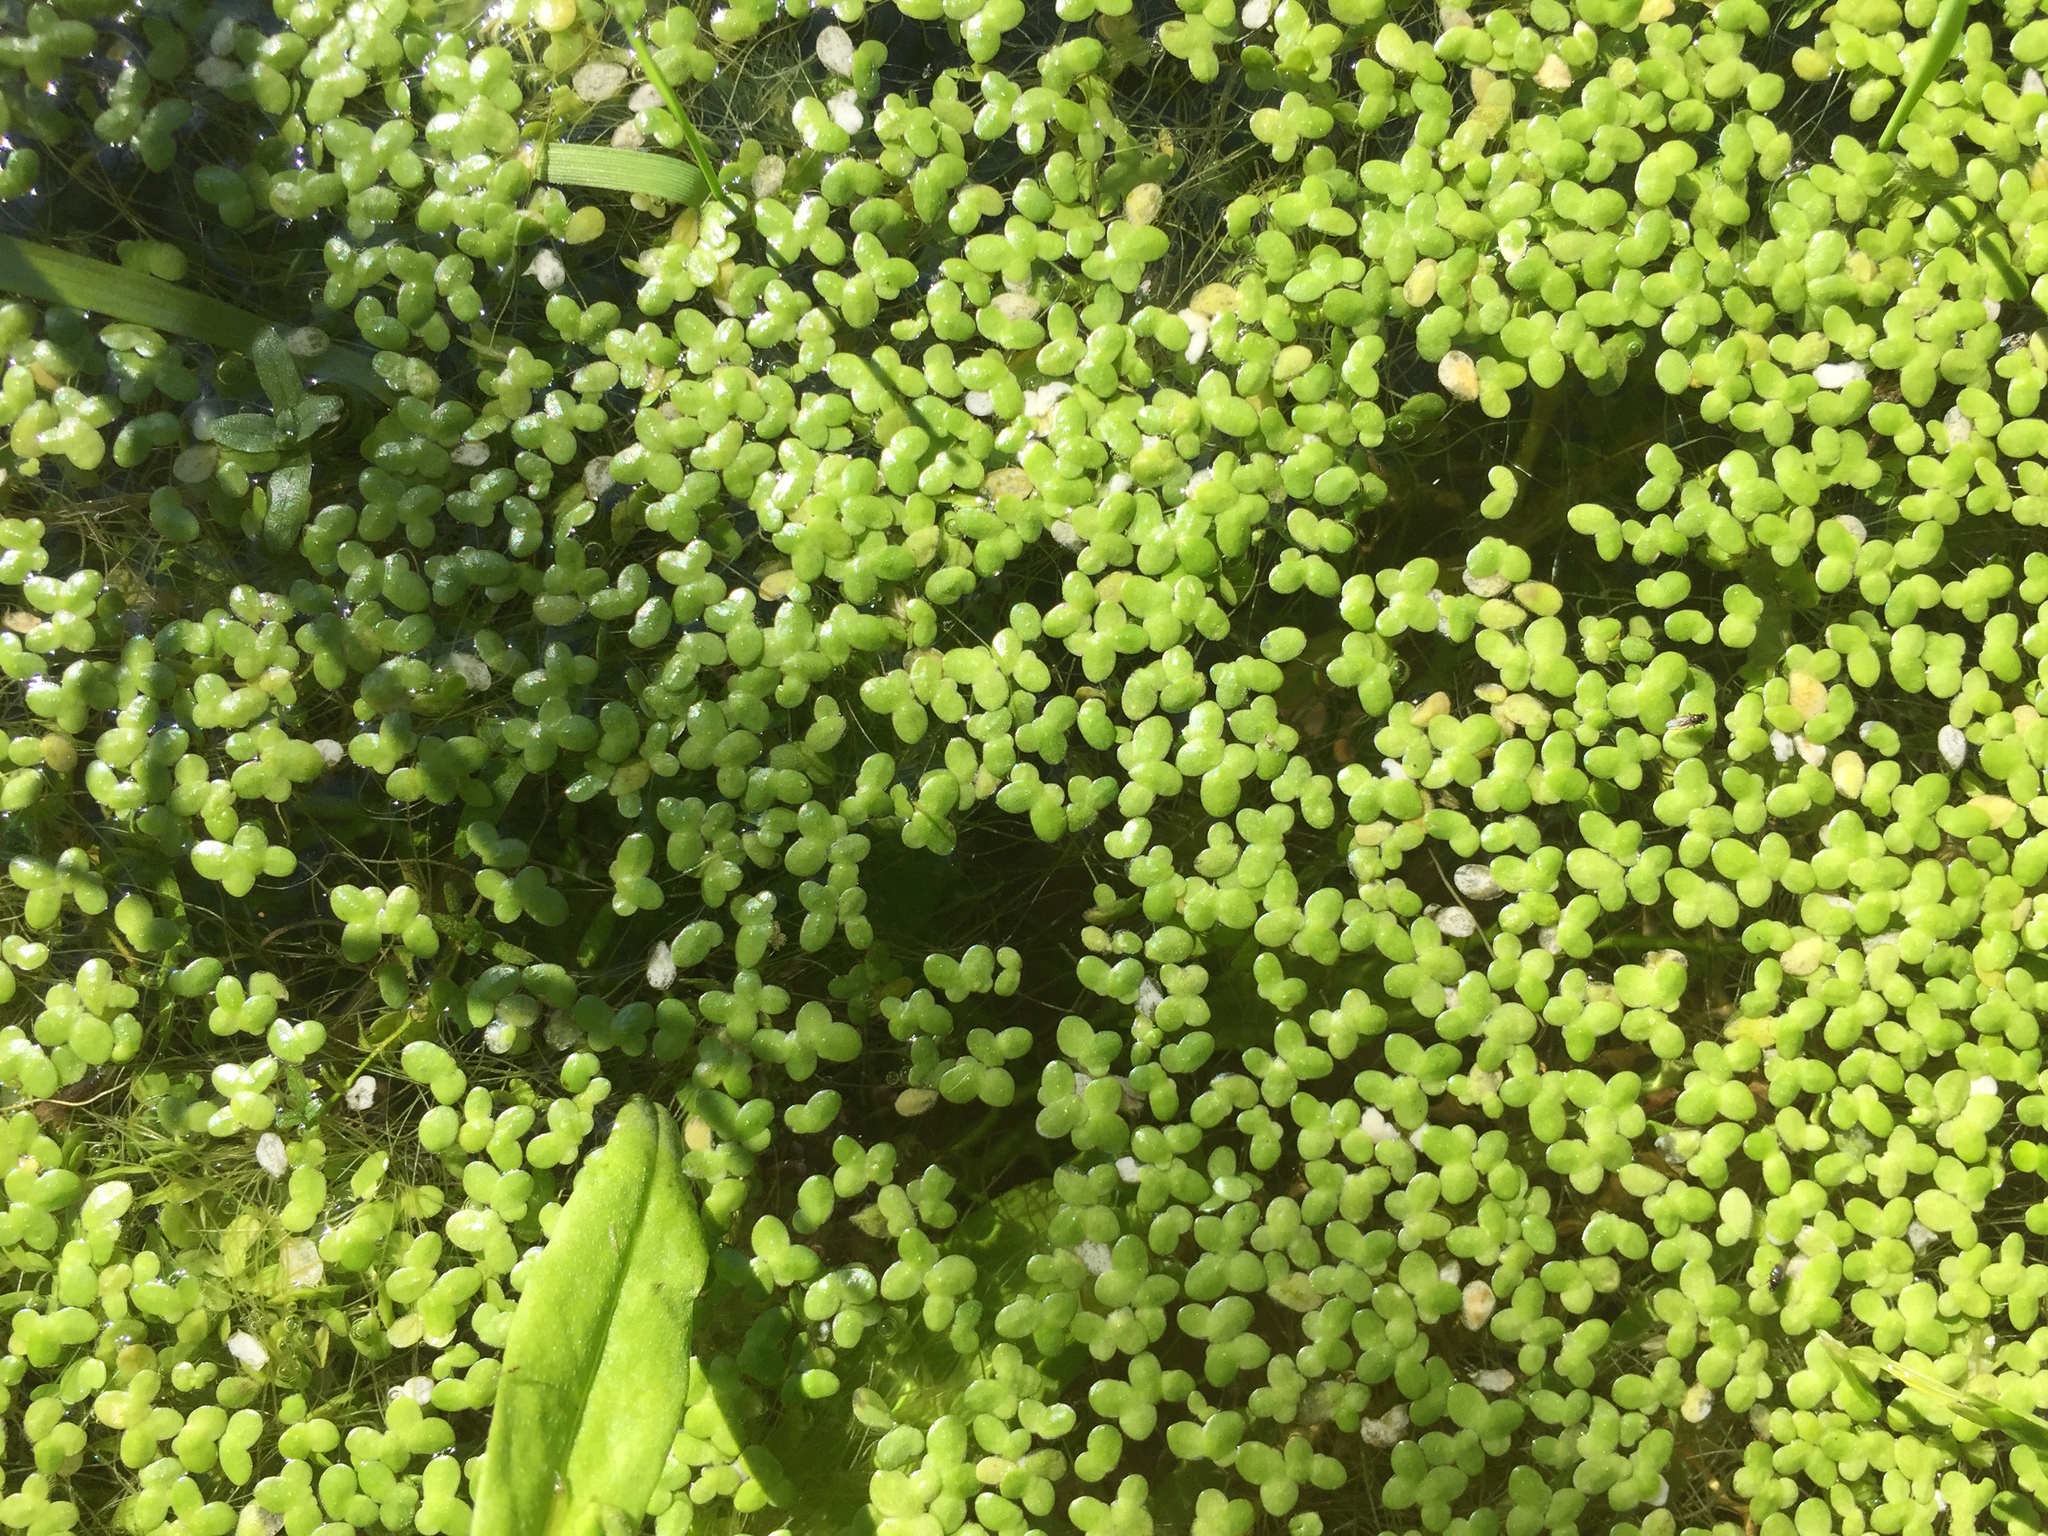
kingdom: Plantae
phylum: Tracheophyta
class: Liliopsida
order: Alismatales
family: Araceae
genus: Lemna
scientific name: Lemna minor
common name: Common duckweed
